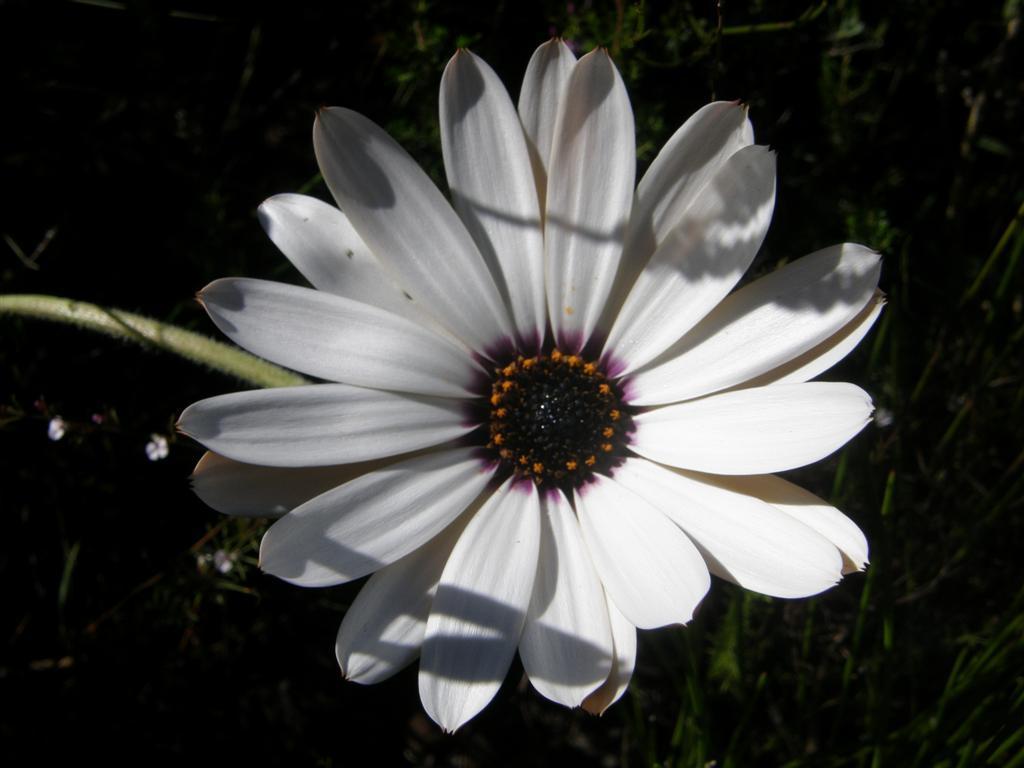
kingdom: Plantae
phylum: Tracheophyta
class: Magnoliopsida
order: Asterales
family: Asteraceae
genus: Dimorphotheca
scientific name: Dimorphotheca nudicaulis
